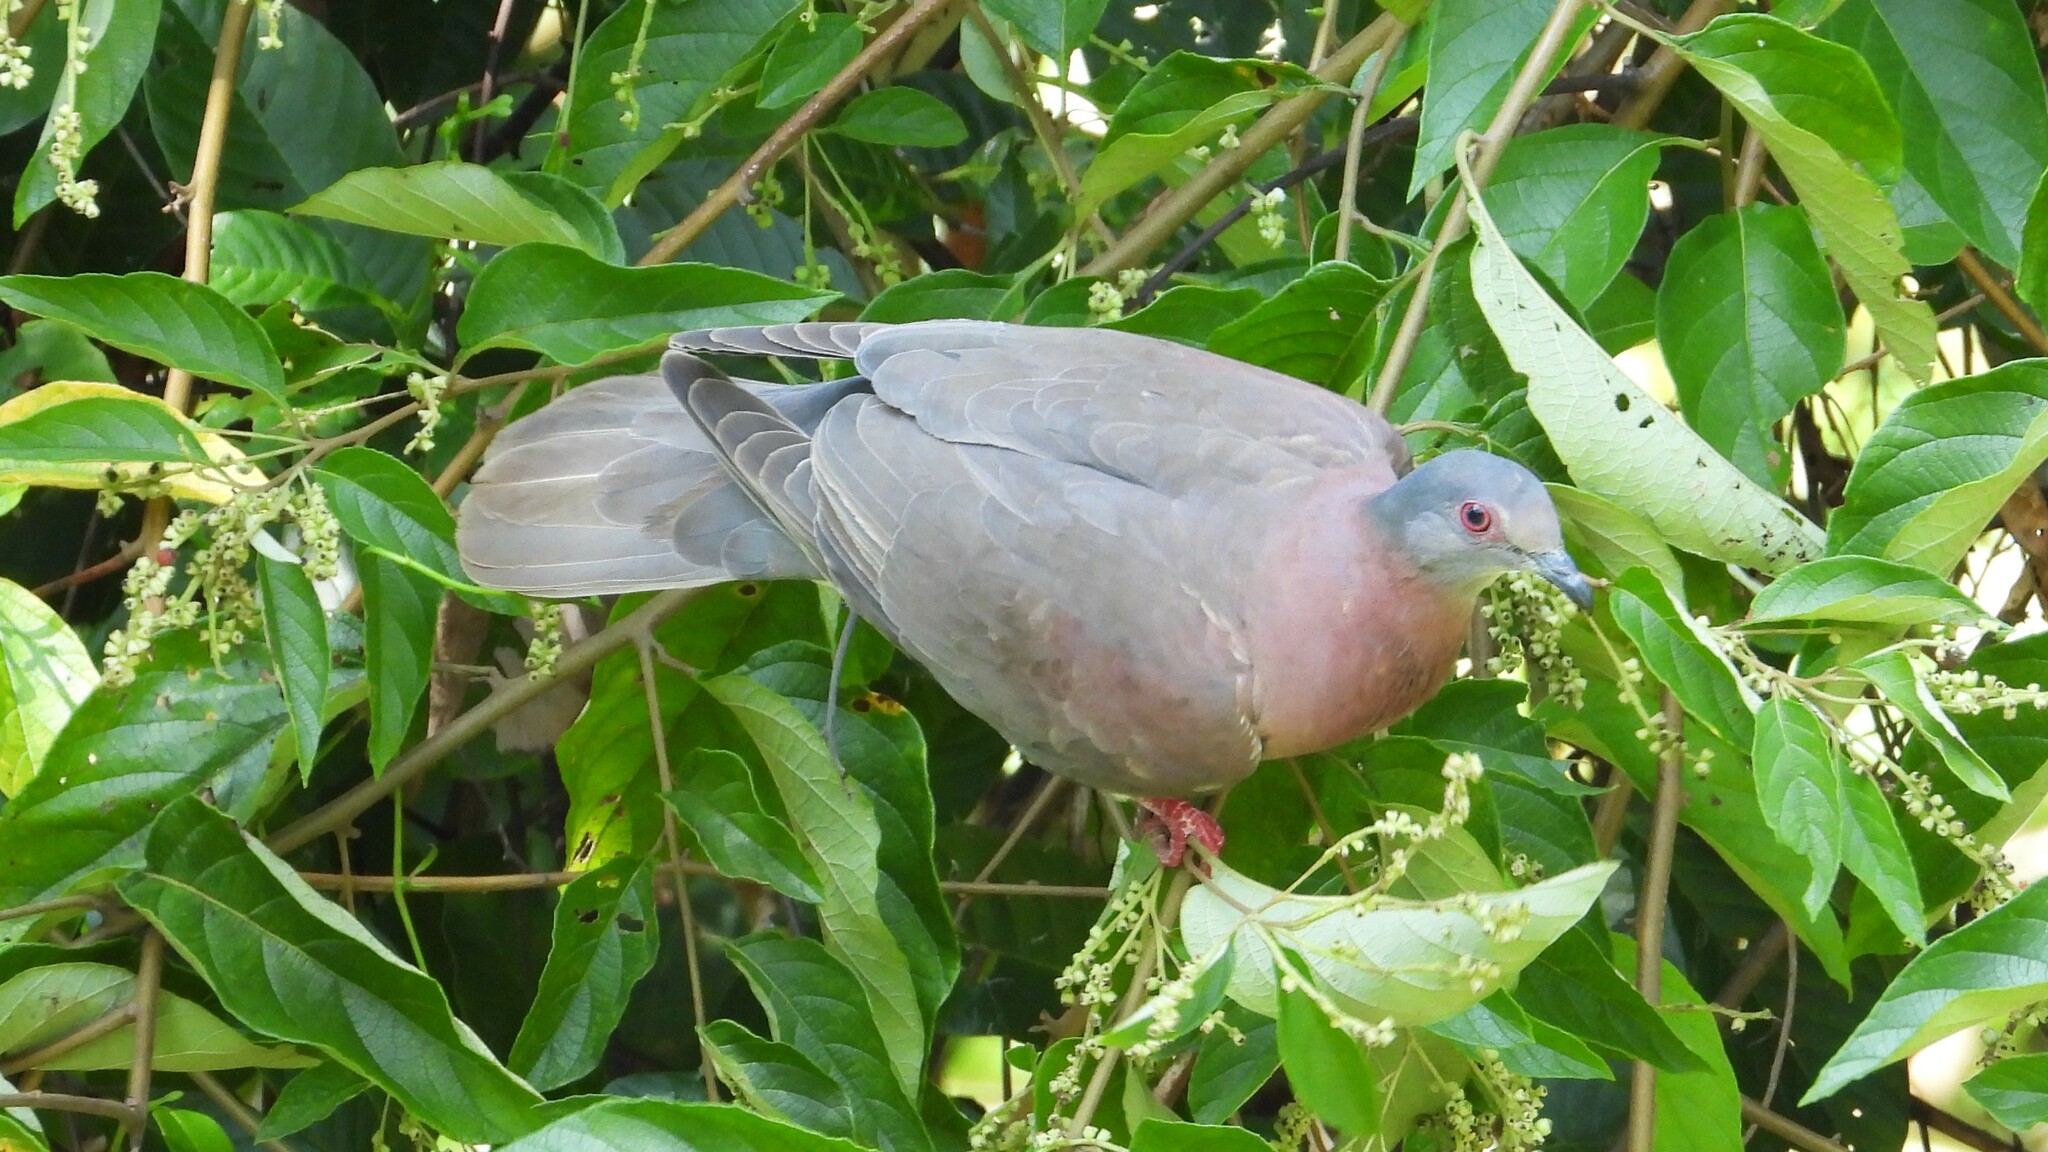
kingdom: Animalia
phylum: Chordata
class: Aves
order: Columbiformes
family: Columbidae
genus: Patagioenas
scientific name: Patagioenas cayennensis
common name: Pale-vented pigeon
